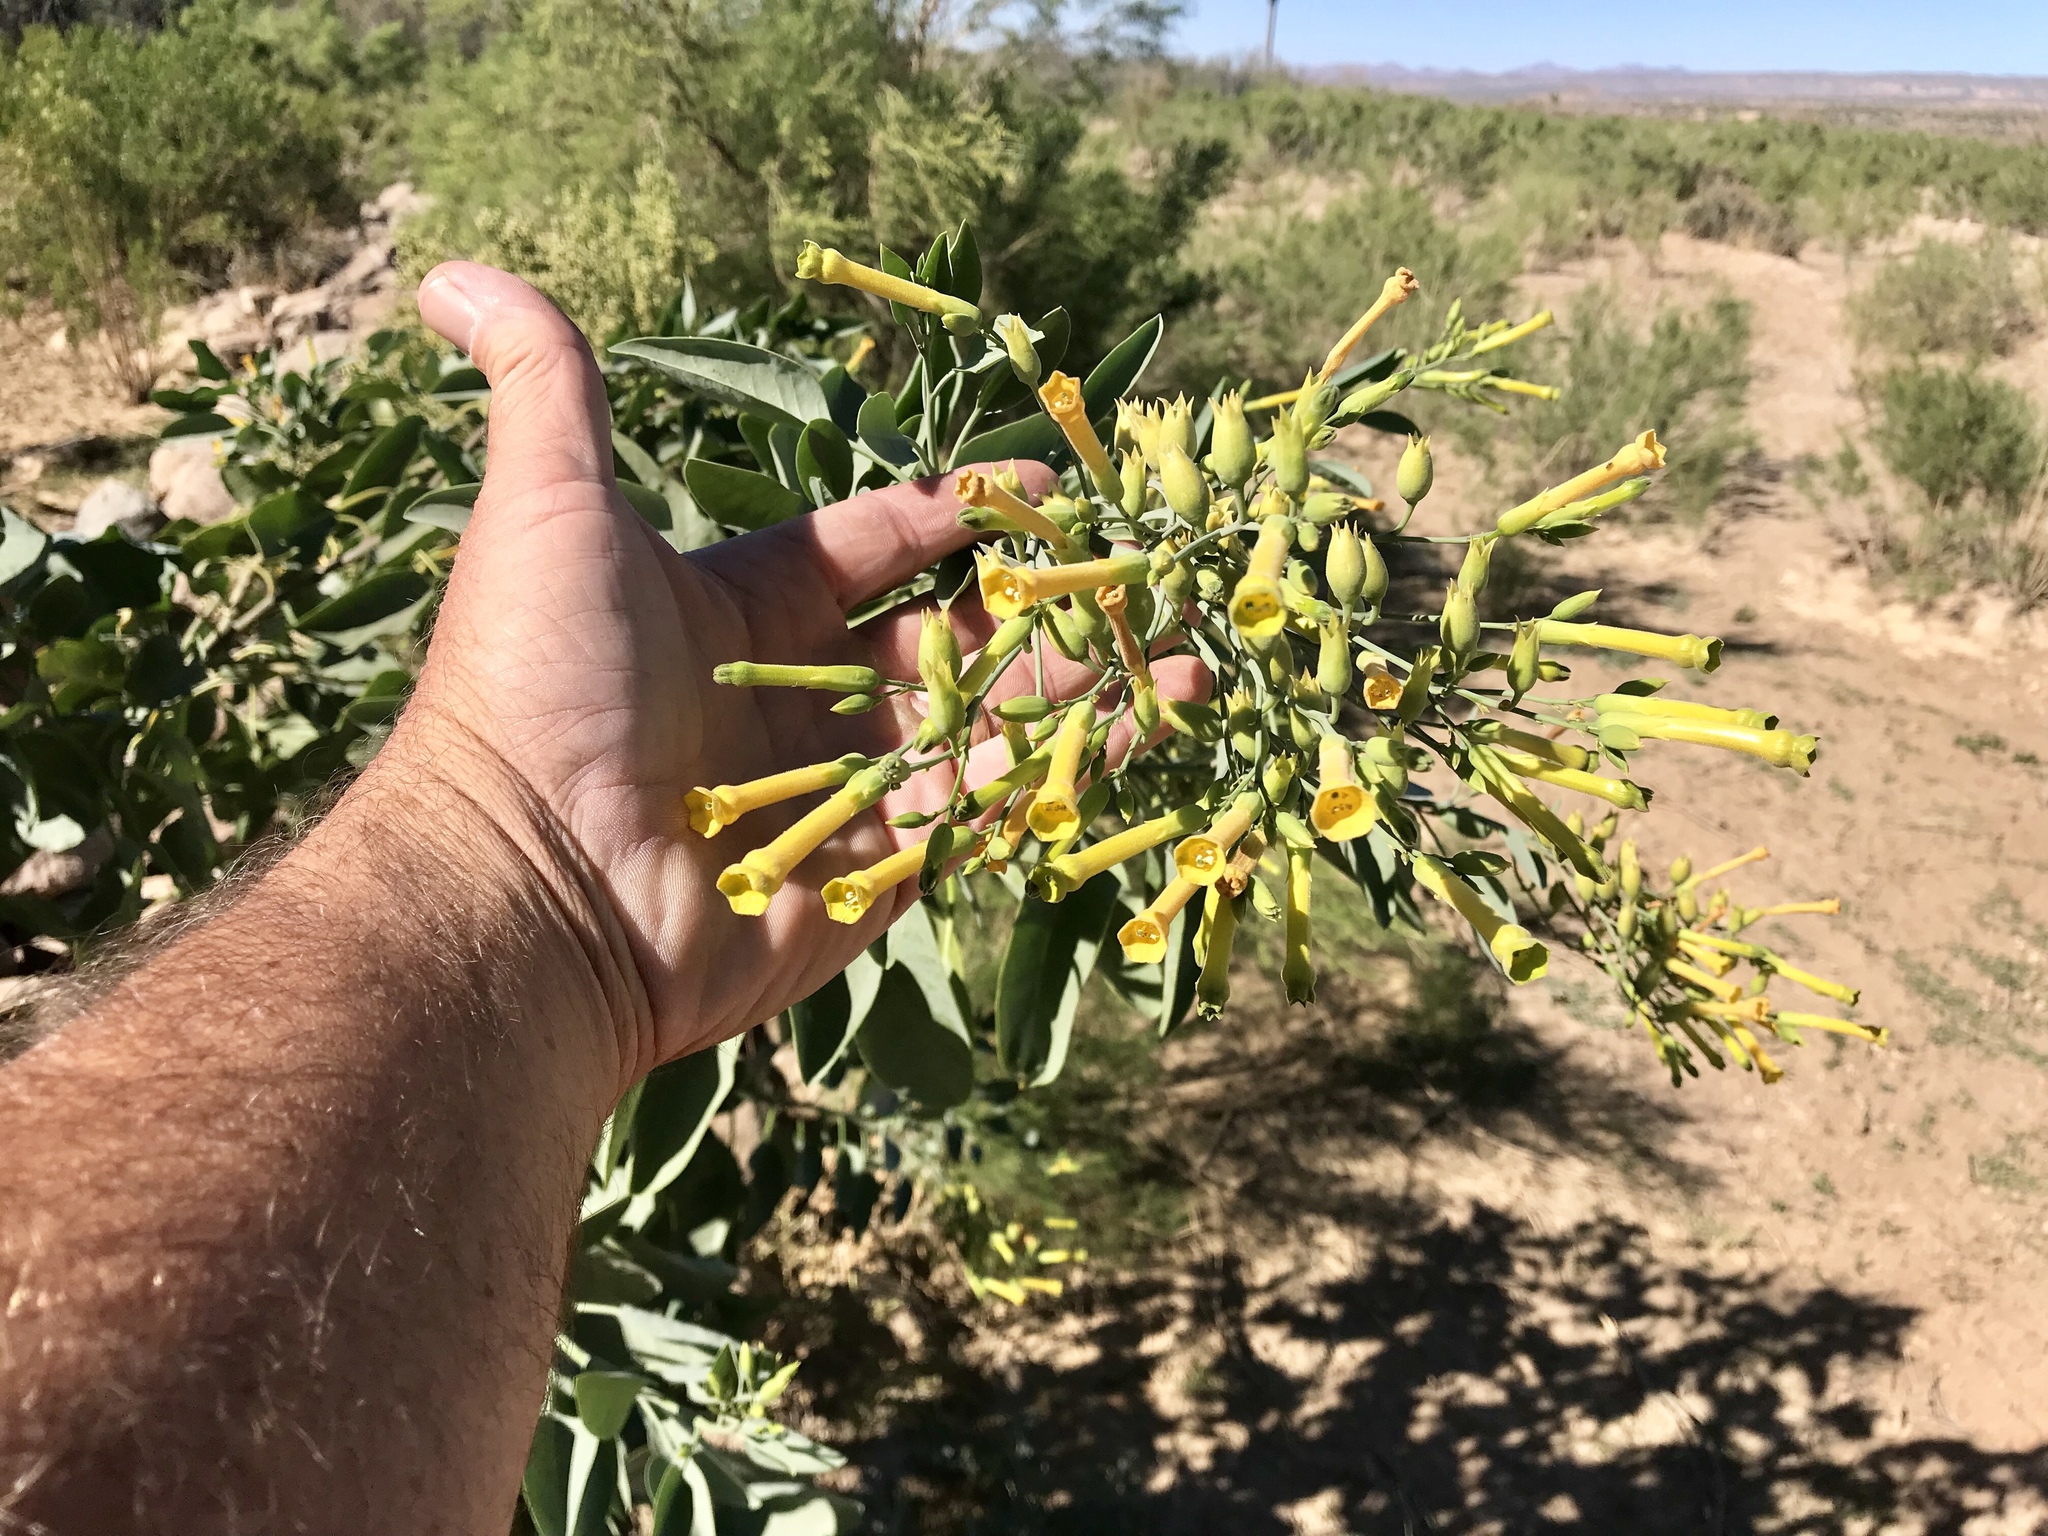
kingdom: Plantae
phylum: Tracheophyta
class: Magnoliopsida
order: Solanales
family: Solanaceae
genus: Nicotiana
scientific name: Nicotiana glauca
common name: Tree tobacco
